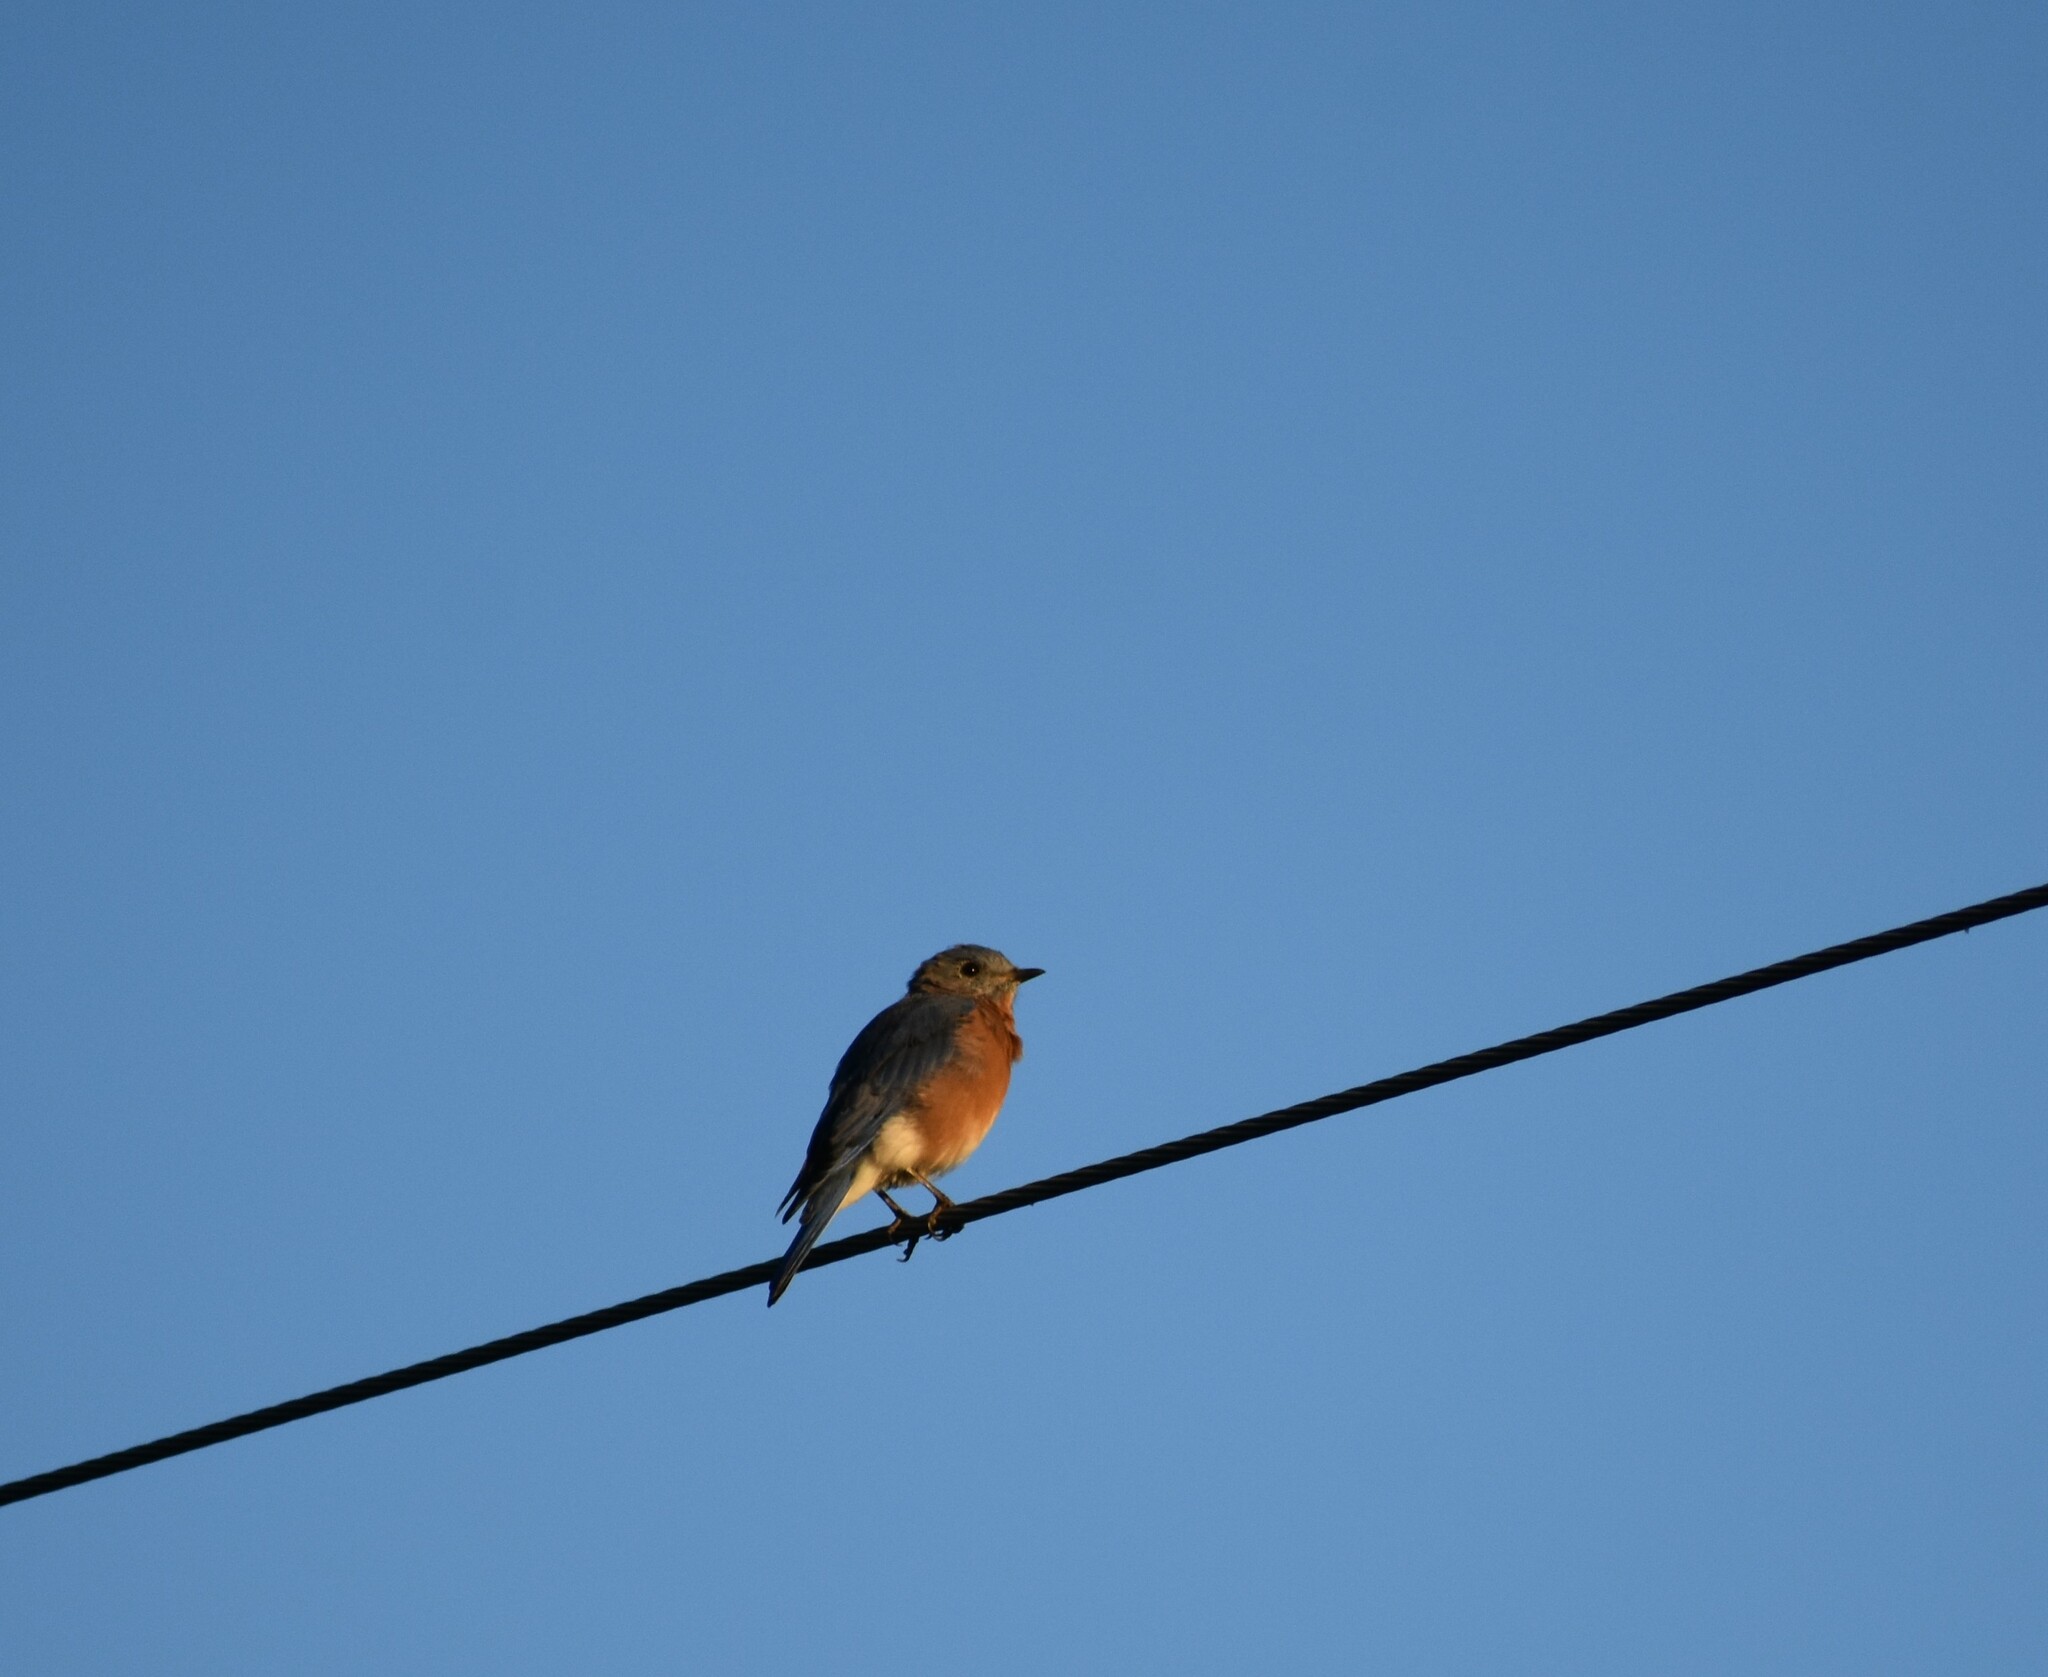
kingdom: Animalia
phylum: Chordata
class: Aves
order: Passeriformes
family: Turdidae
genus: Sialia
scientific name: Sialia sialis
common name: Eastern bluebird
